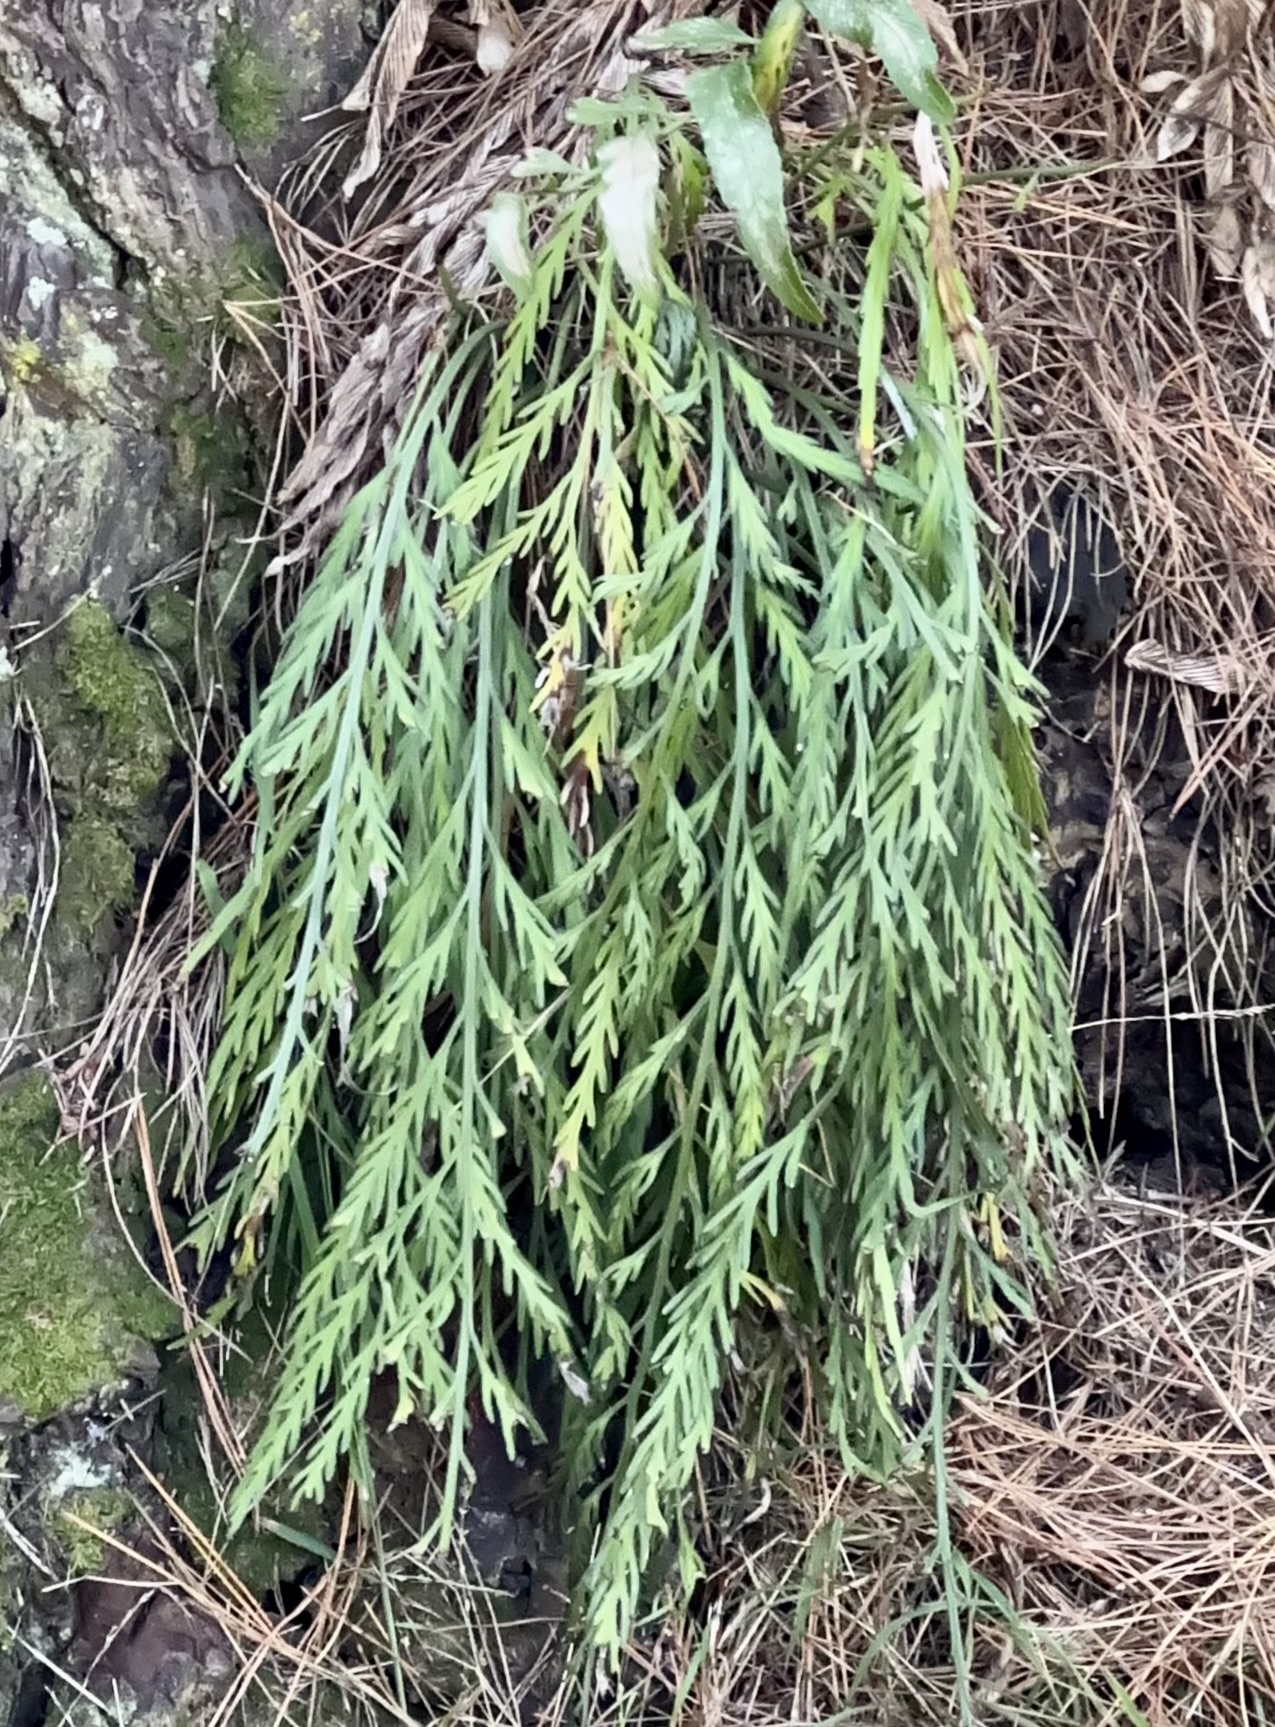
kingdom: Plantae
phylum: Tracheophyta
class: Polypodiopsida
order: Polypodiales
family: Aspleniaceae
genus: Asplenium
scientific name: Asplenium flaccidum
